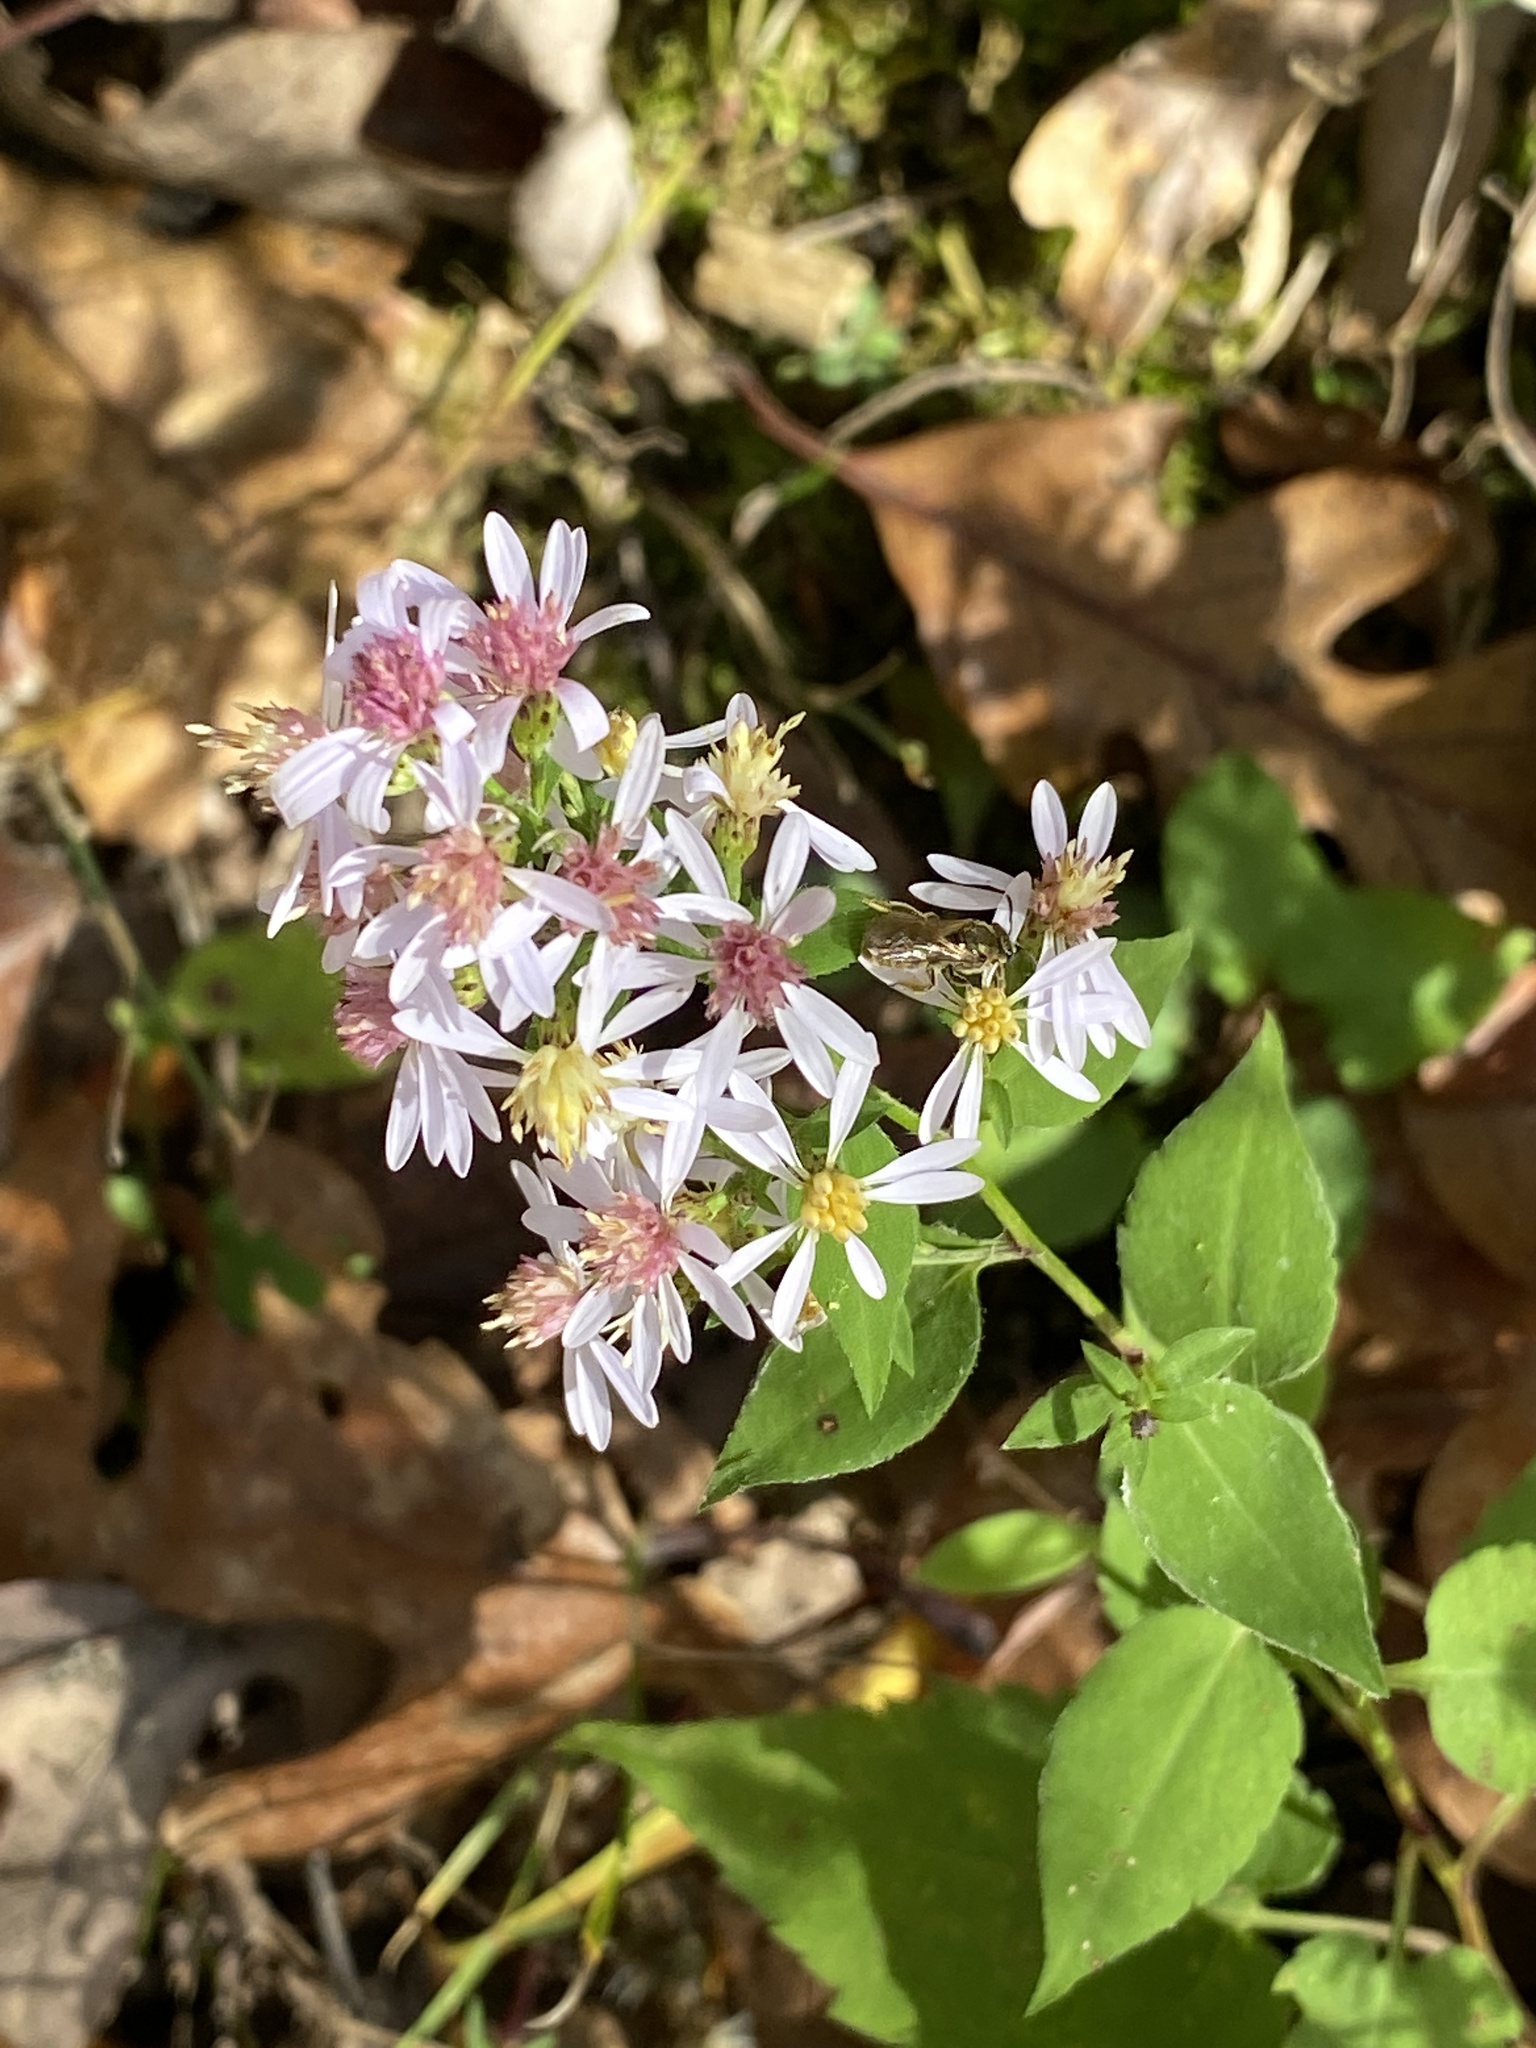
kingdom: Plantae
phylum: Tracheophyta
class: Magnoliopsida
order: Asterales
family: Asteraceae
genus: Symphyotrichum
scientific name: Symphyotrichum cordifolium
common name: Beeweed
